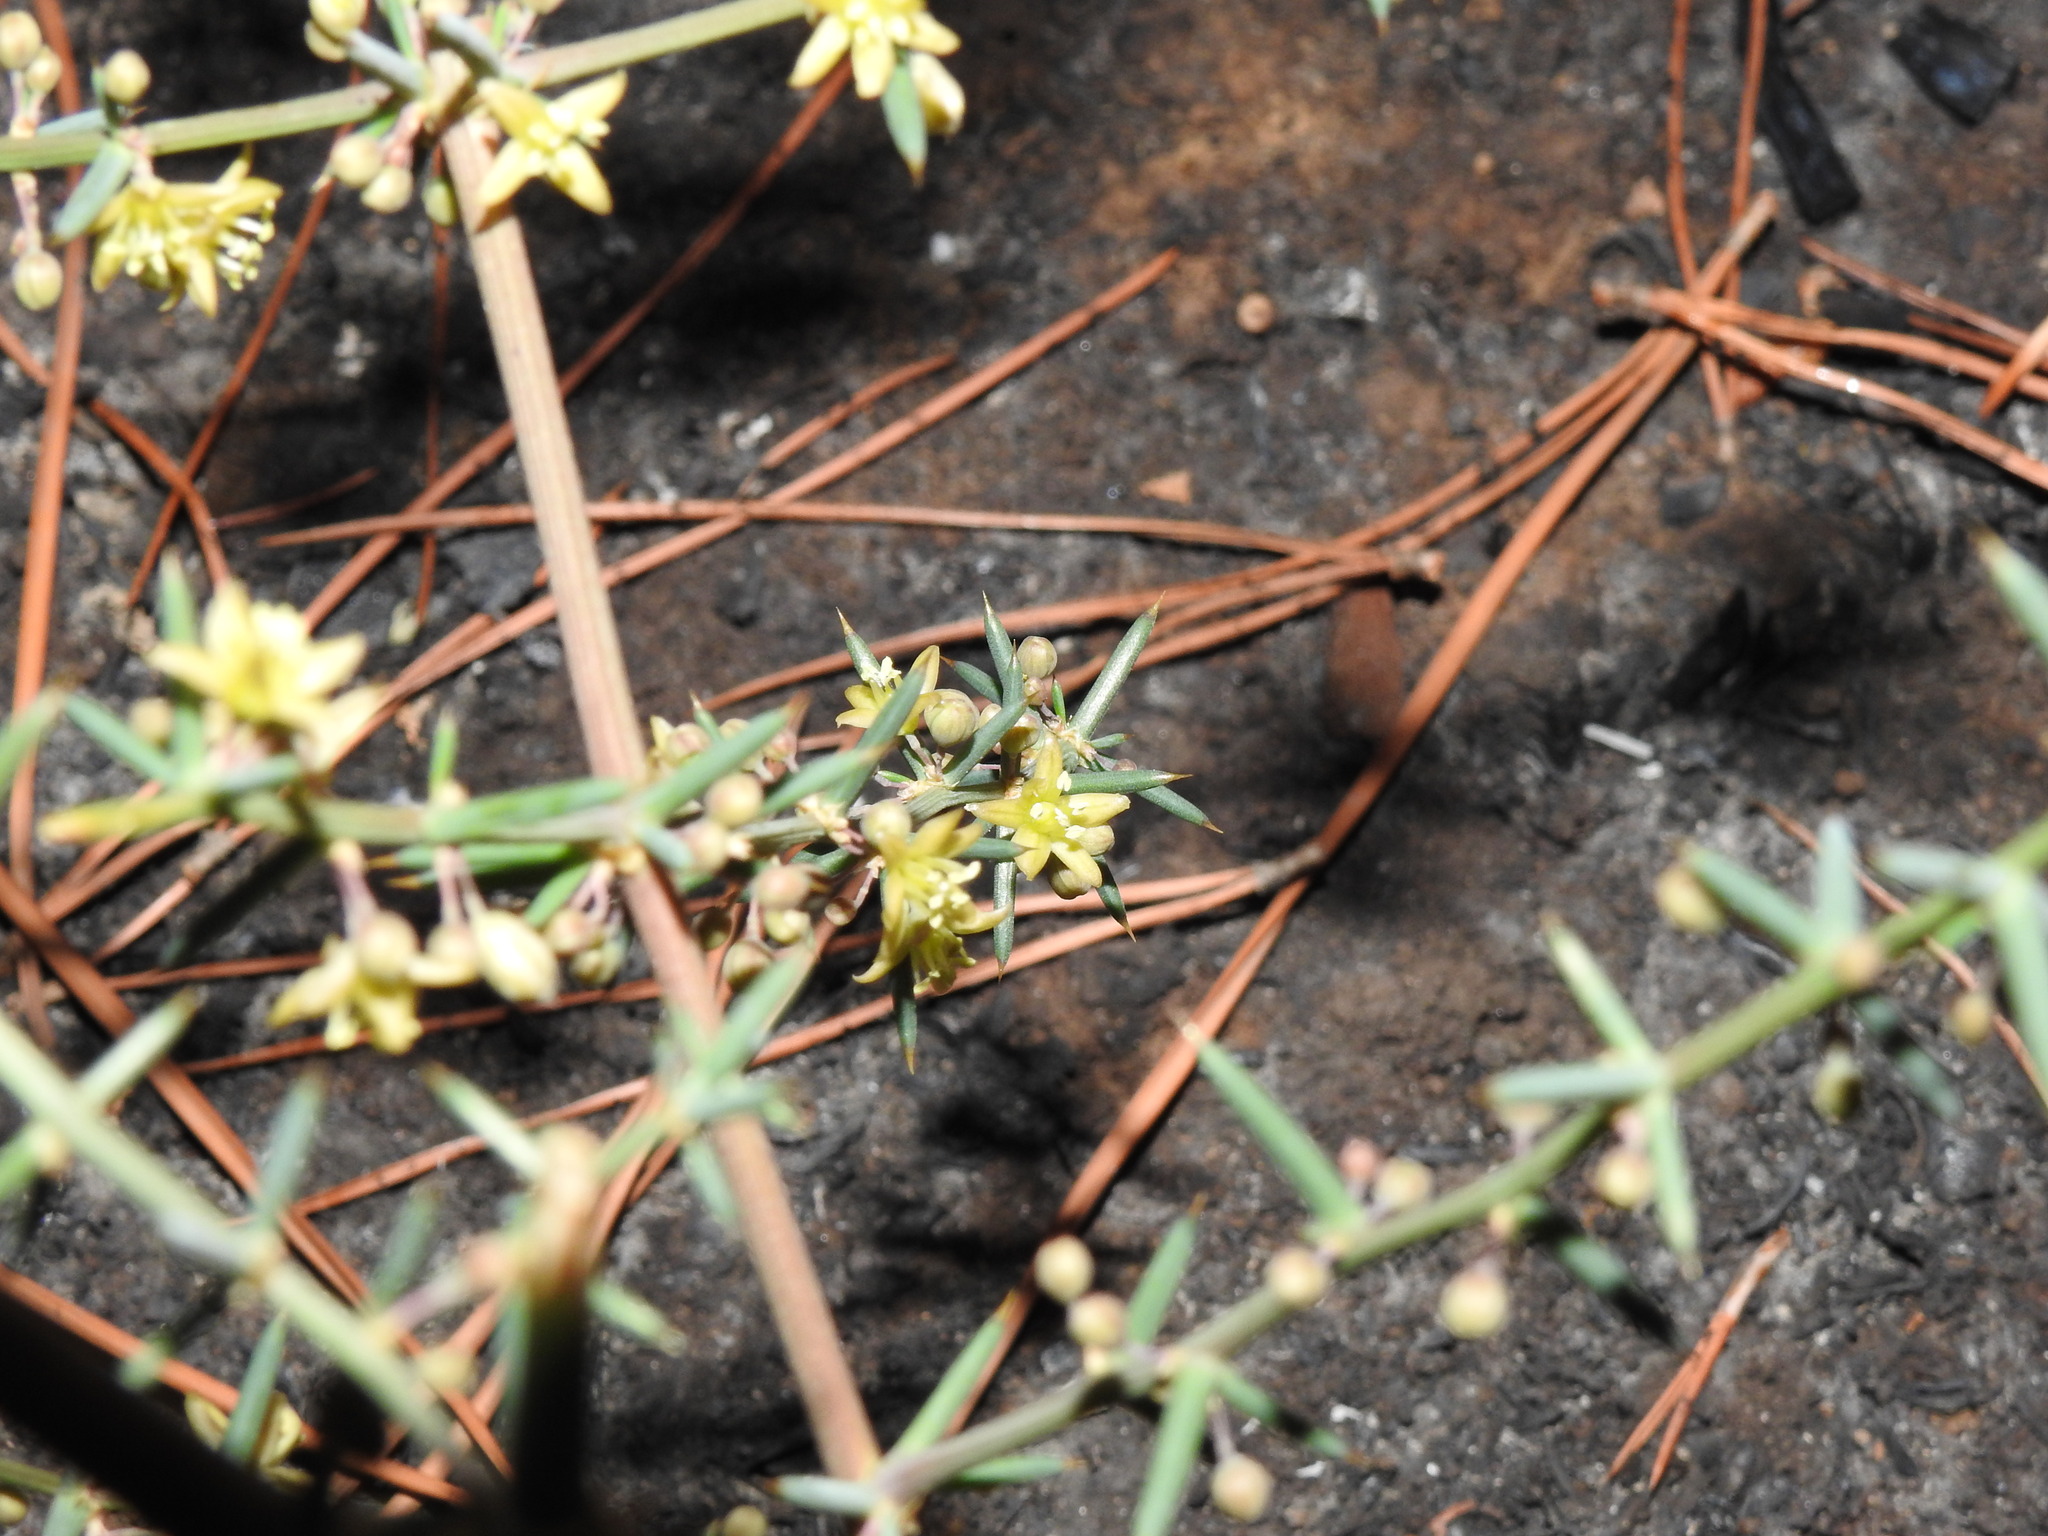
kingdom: Plantae
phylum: Tracheophyta
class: Liliopsida
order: Asparagales
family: Asparagaceae
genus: Asparagus
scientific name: Asparagus aphyllus
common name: Mediterranean asparagus
